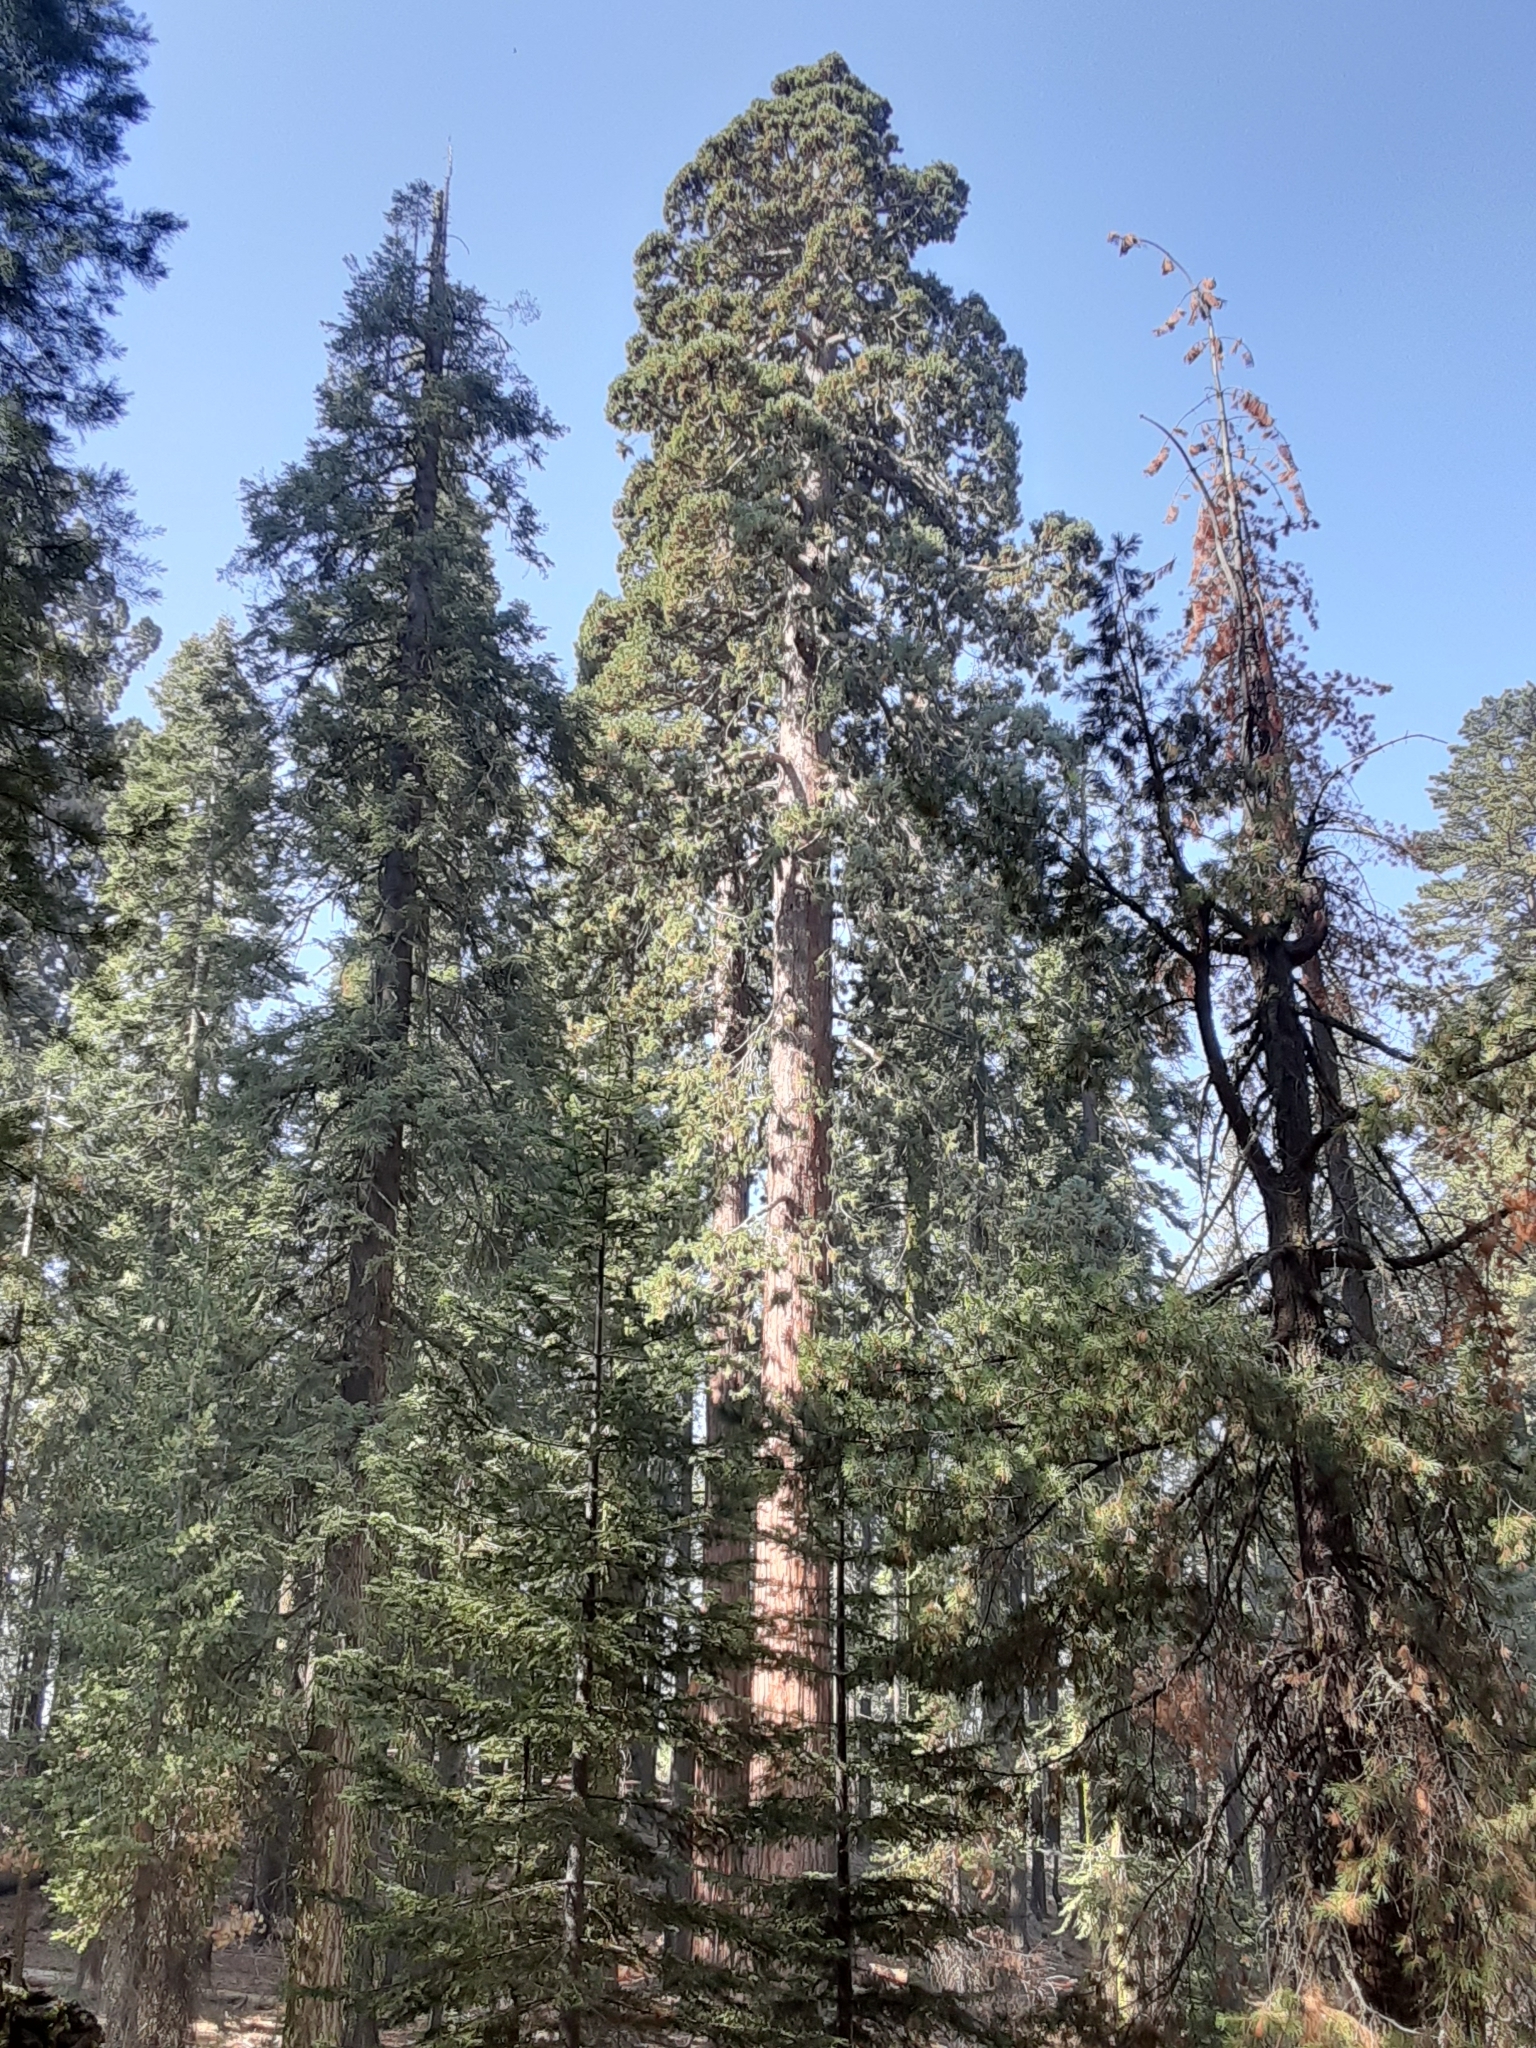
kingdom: Plantae
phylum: Tracheophyta
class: Pinopsida
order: Pinales
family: Cupressaceae
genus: Sequoiadendron
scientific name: Sequoiadendron giganteum
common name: Wellingtonia
